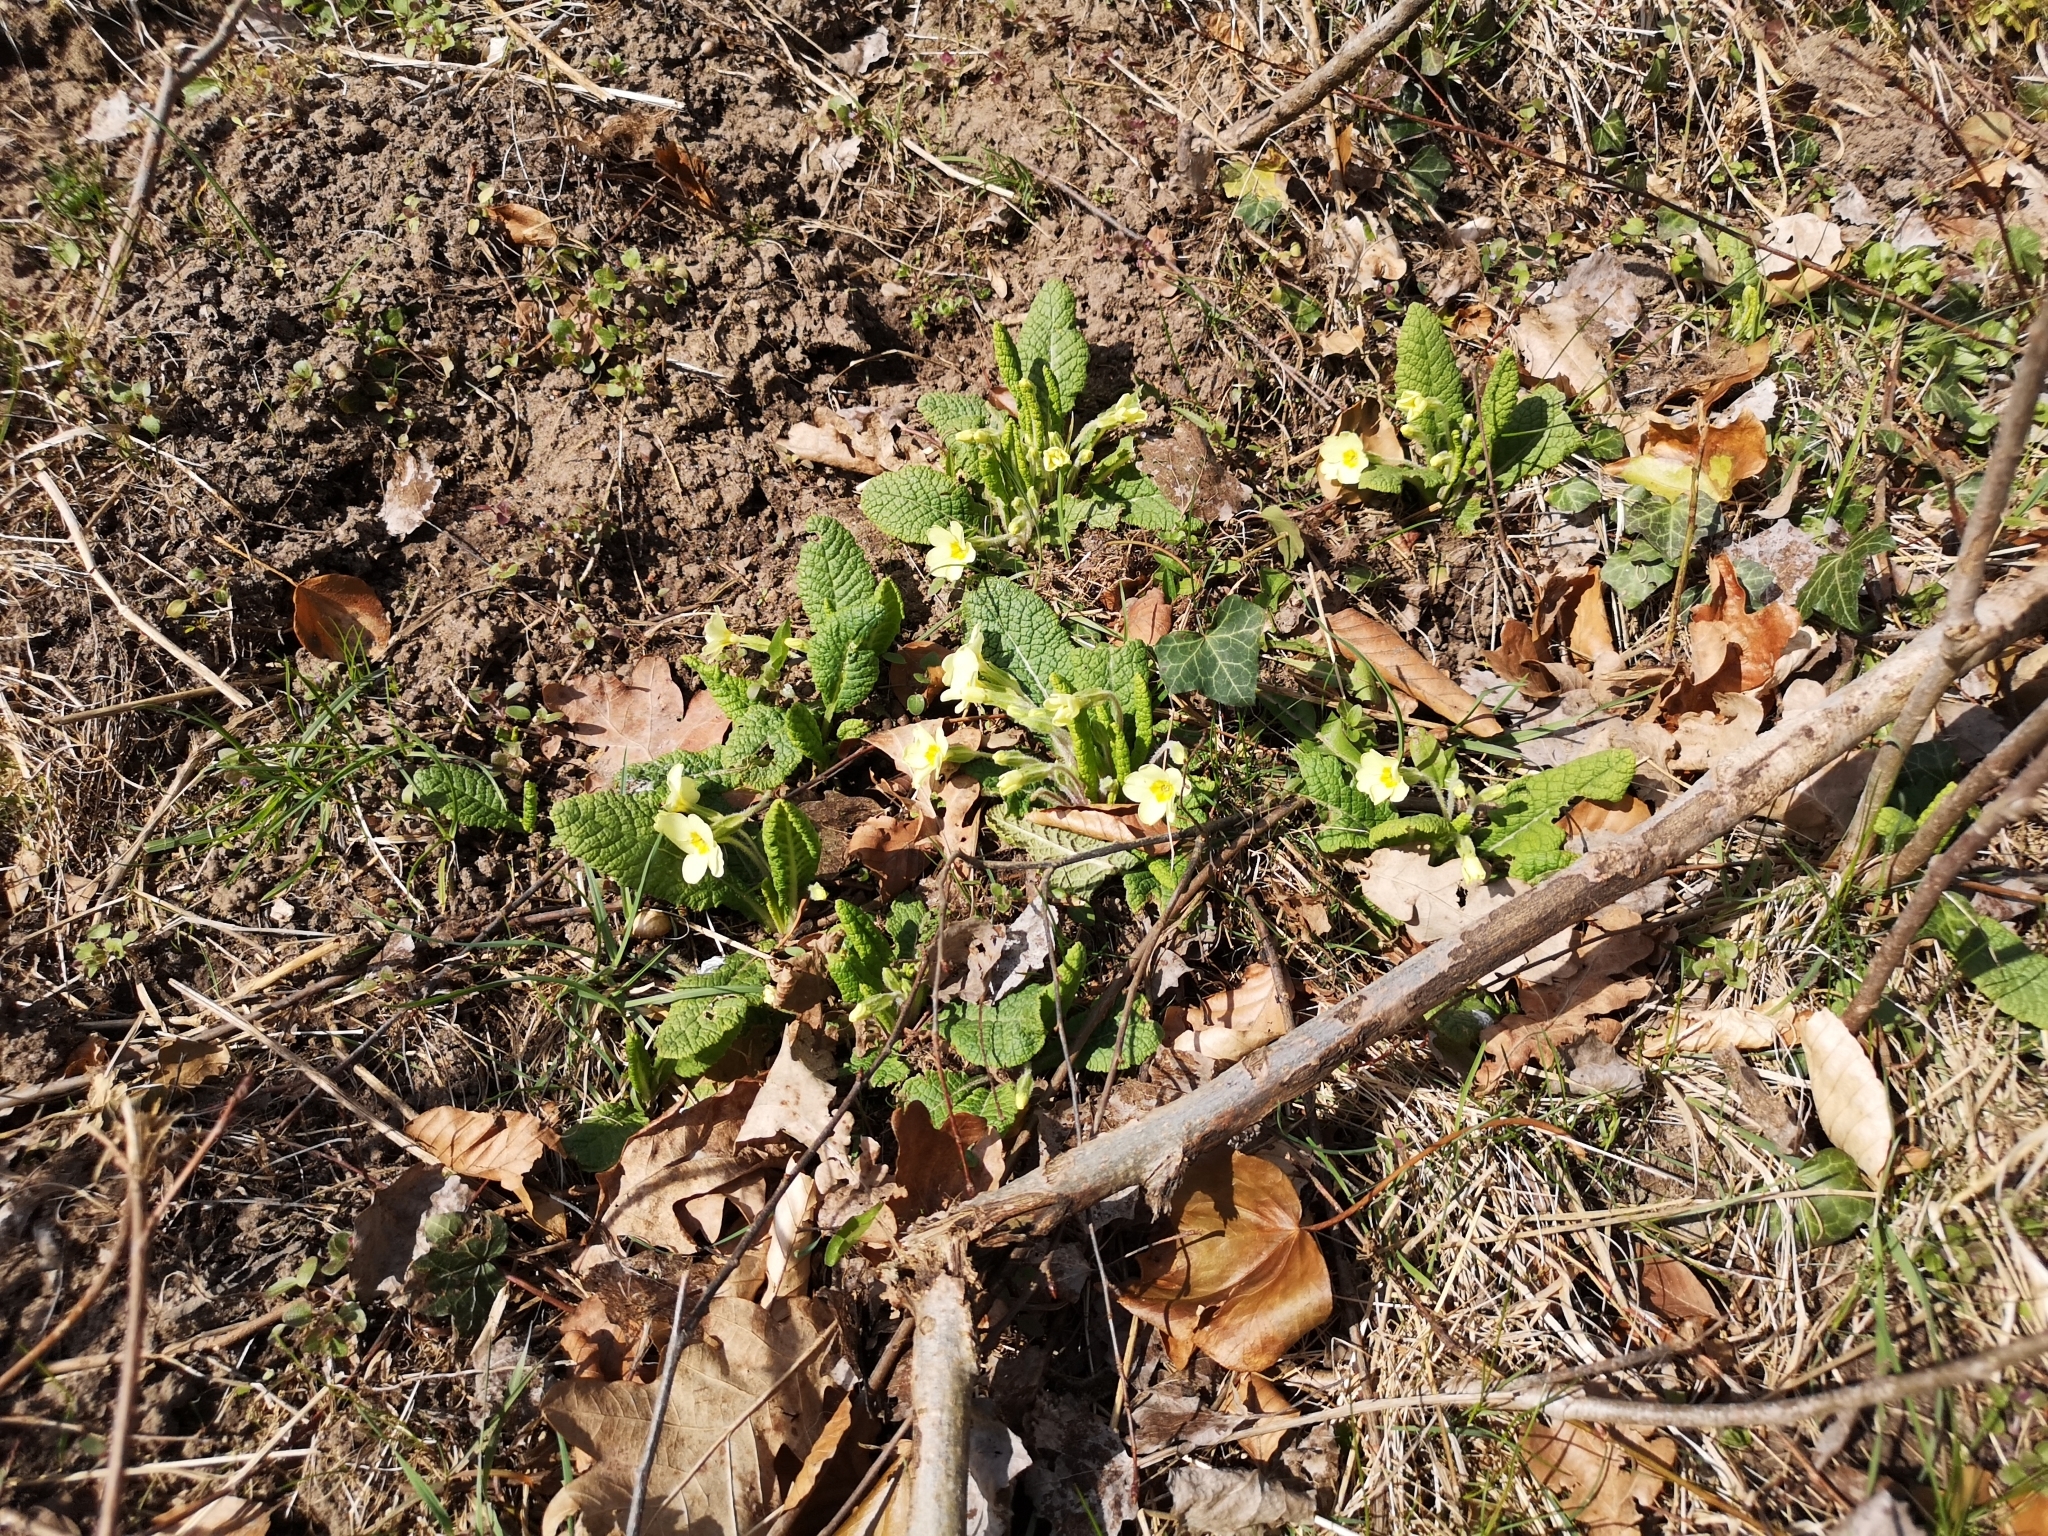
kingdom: Plantae
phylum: Tracheophyta
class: Magnoliopsida
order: Ericales
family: Primulaceae
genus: Primula
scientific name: Primula vulgaris
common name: Primrose
